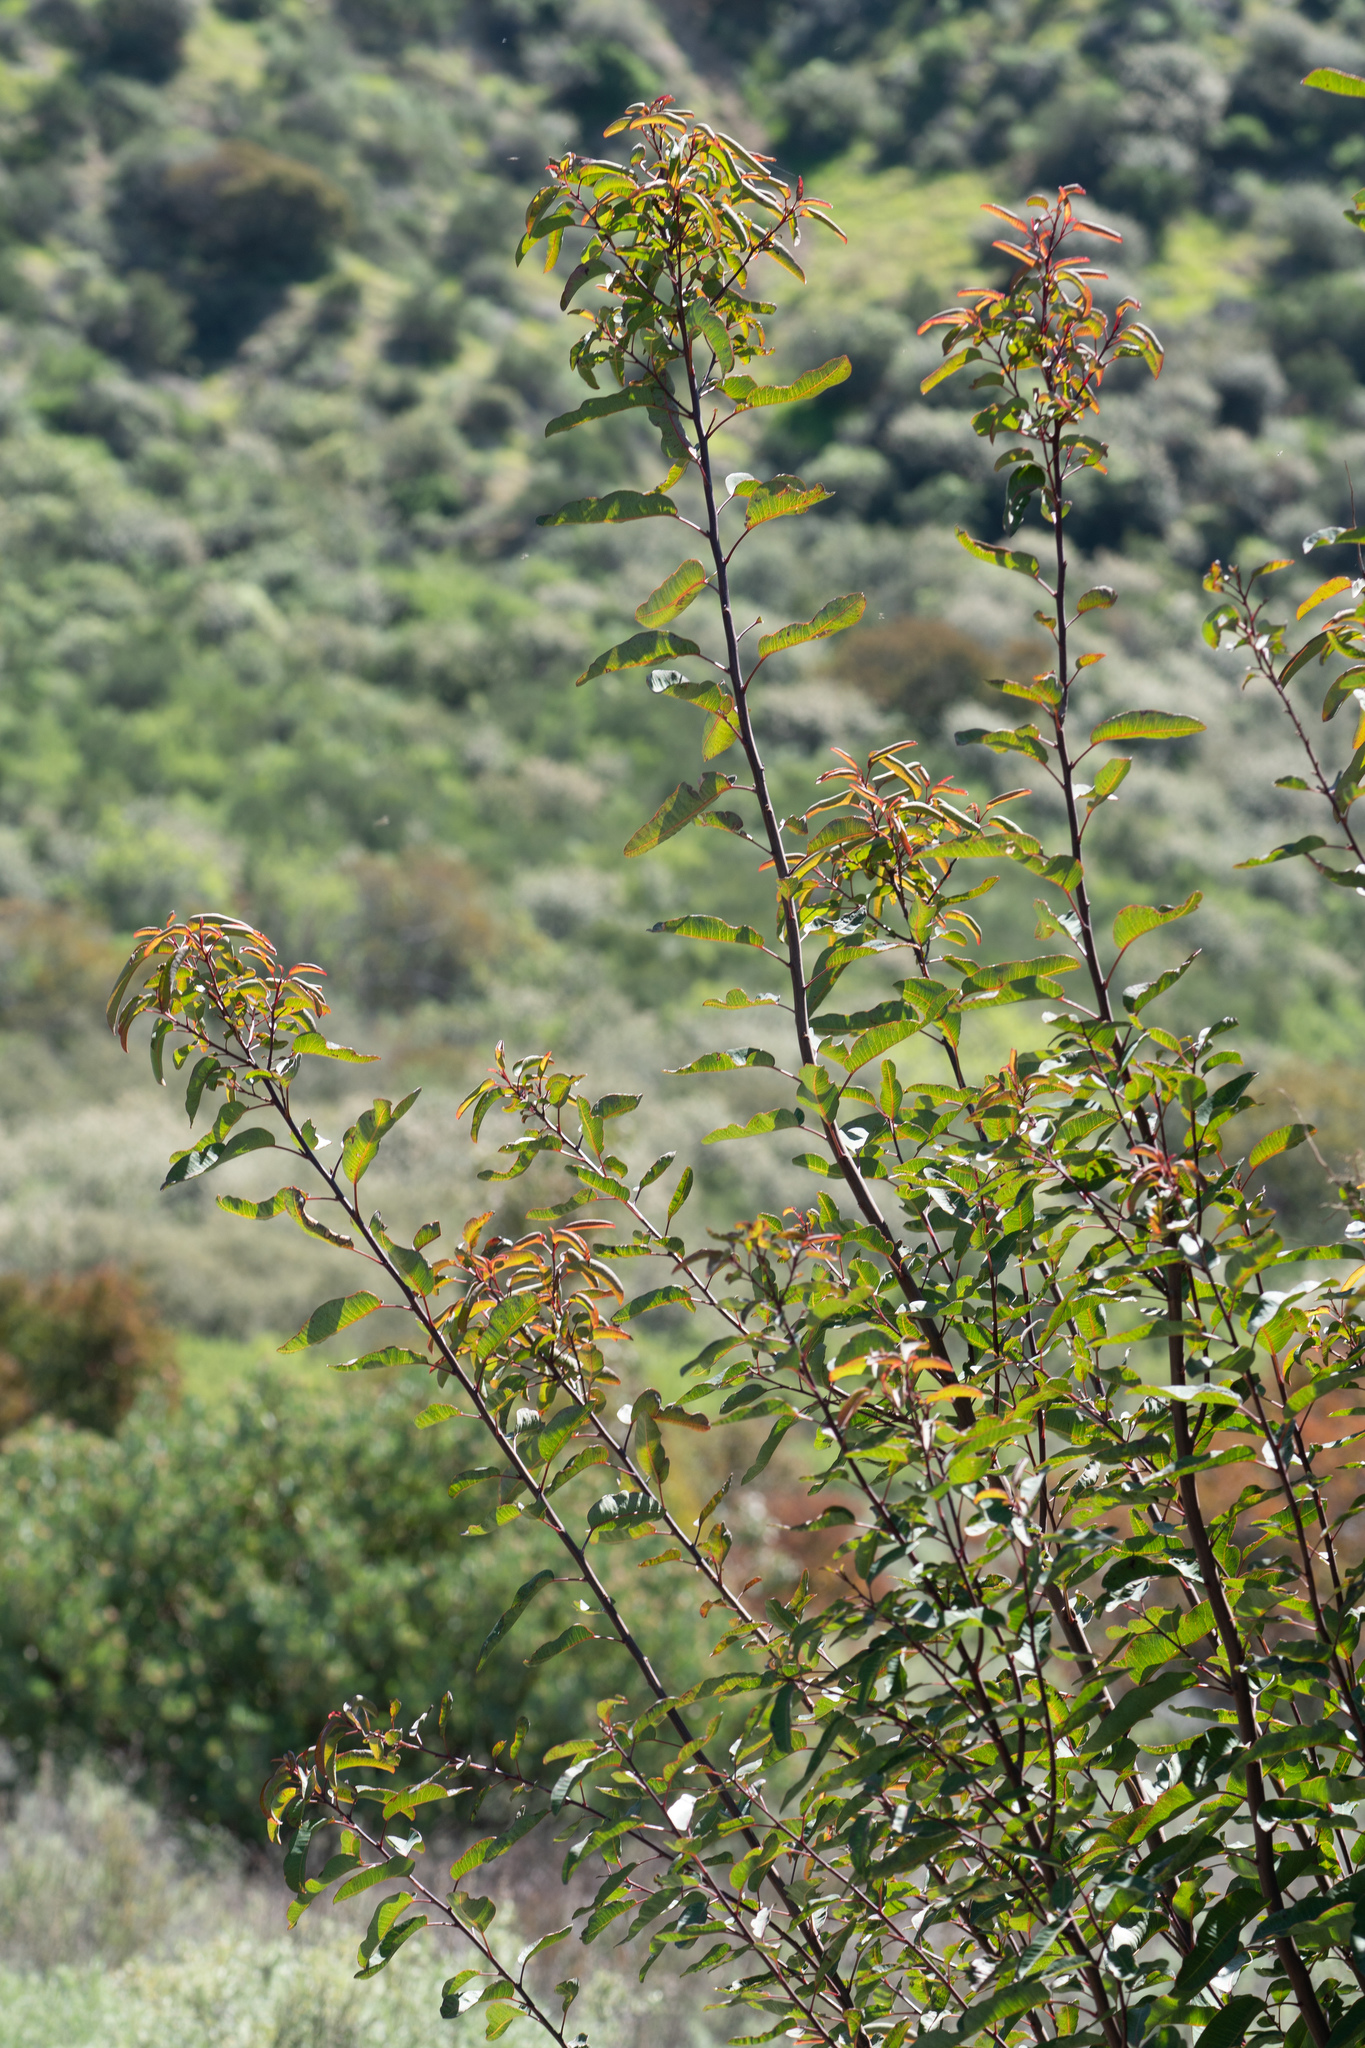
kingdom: Plantae
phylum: Tracheophyta
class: Magnoliopsida
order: Sapindales
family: Anacardiaceae
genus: Malosma
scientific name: Malosma laurina
